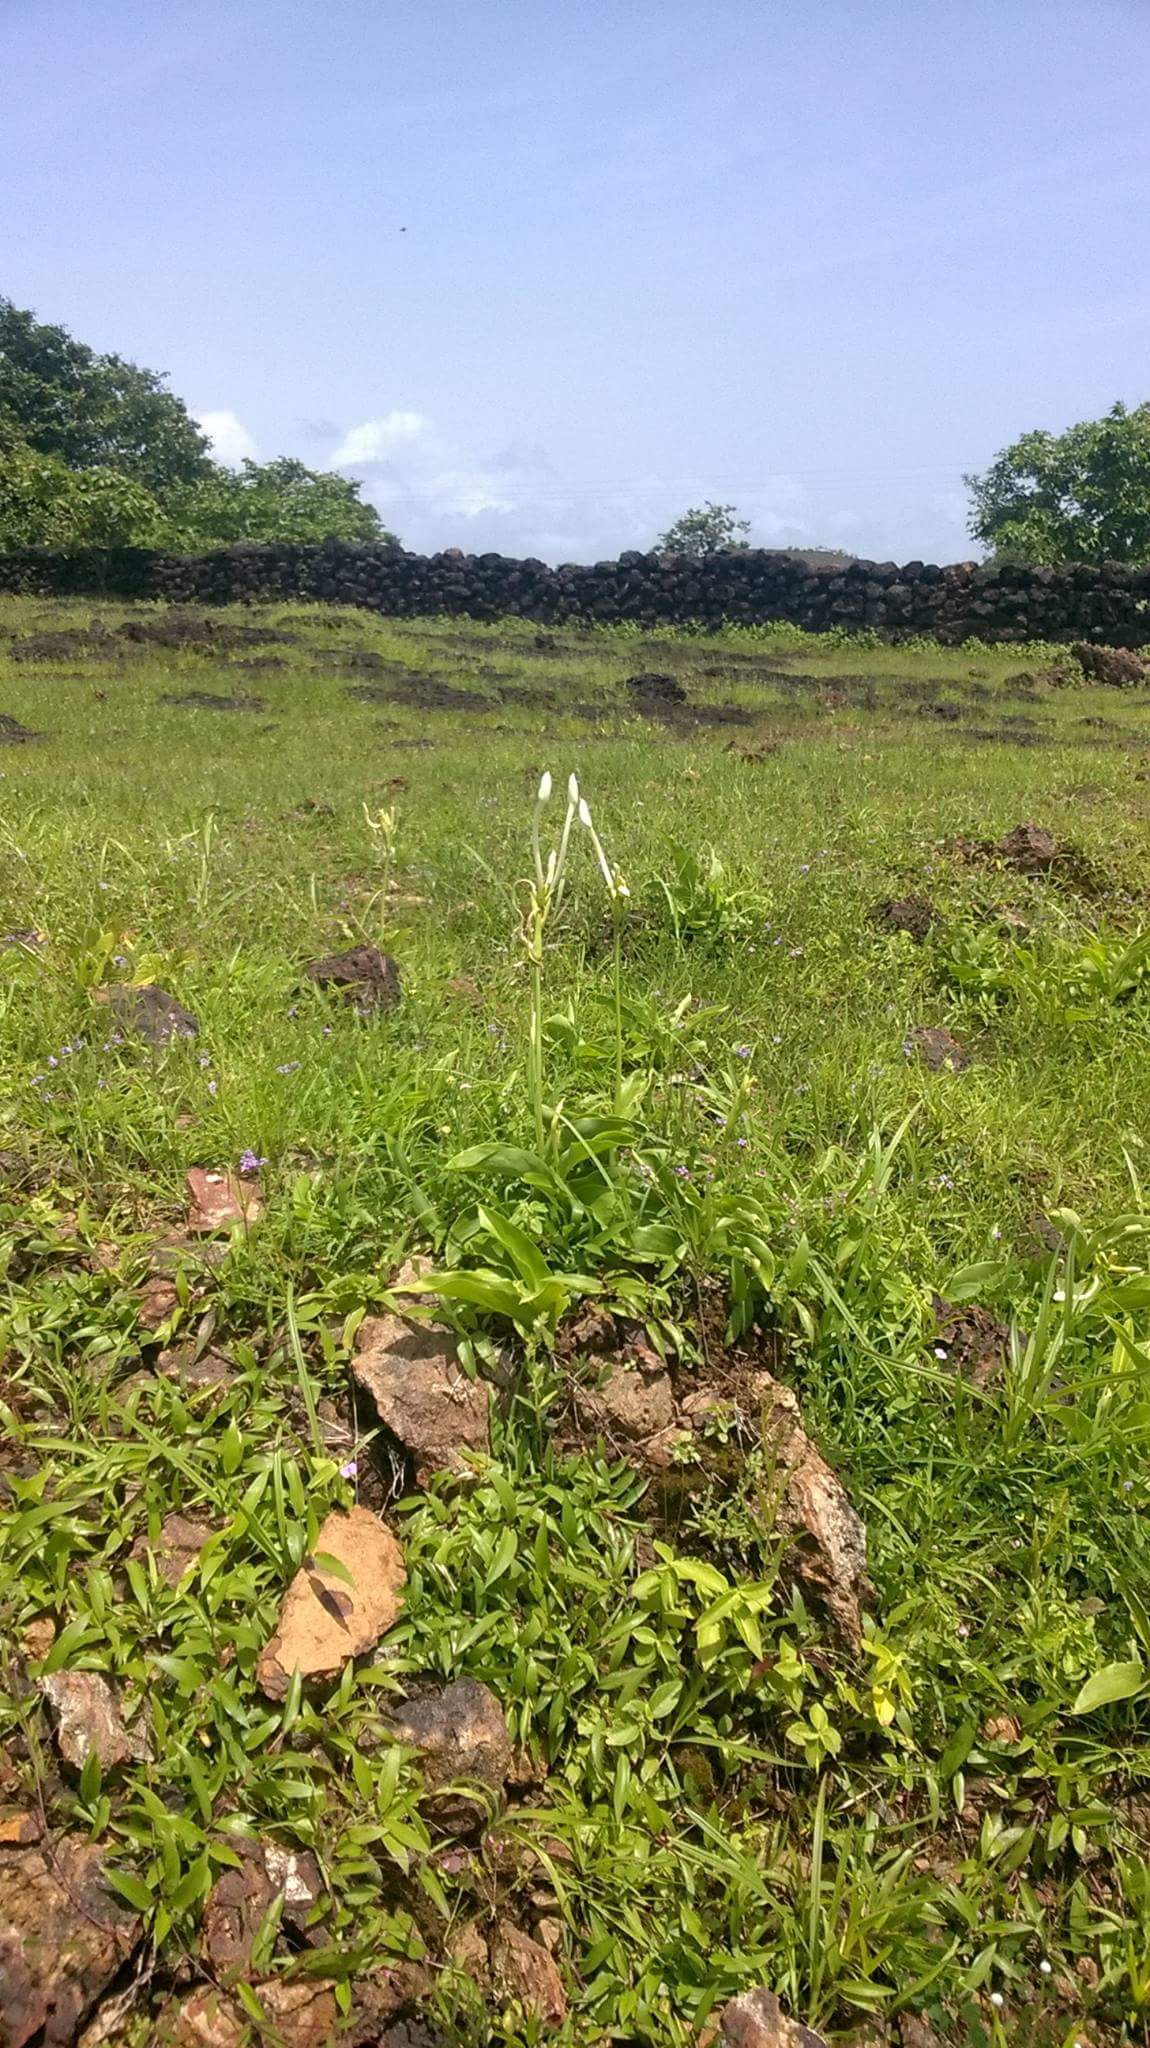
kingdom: Plantae
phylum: Tracheophyta
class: Liliopsida
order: Zingiberales
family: Zingiberaceae
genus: Curcuma
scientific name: Curcuma scaposa
